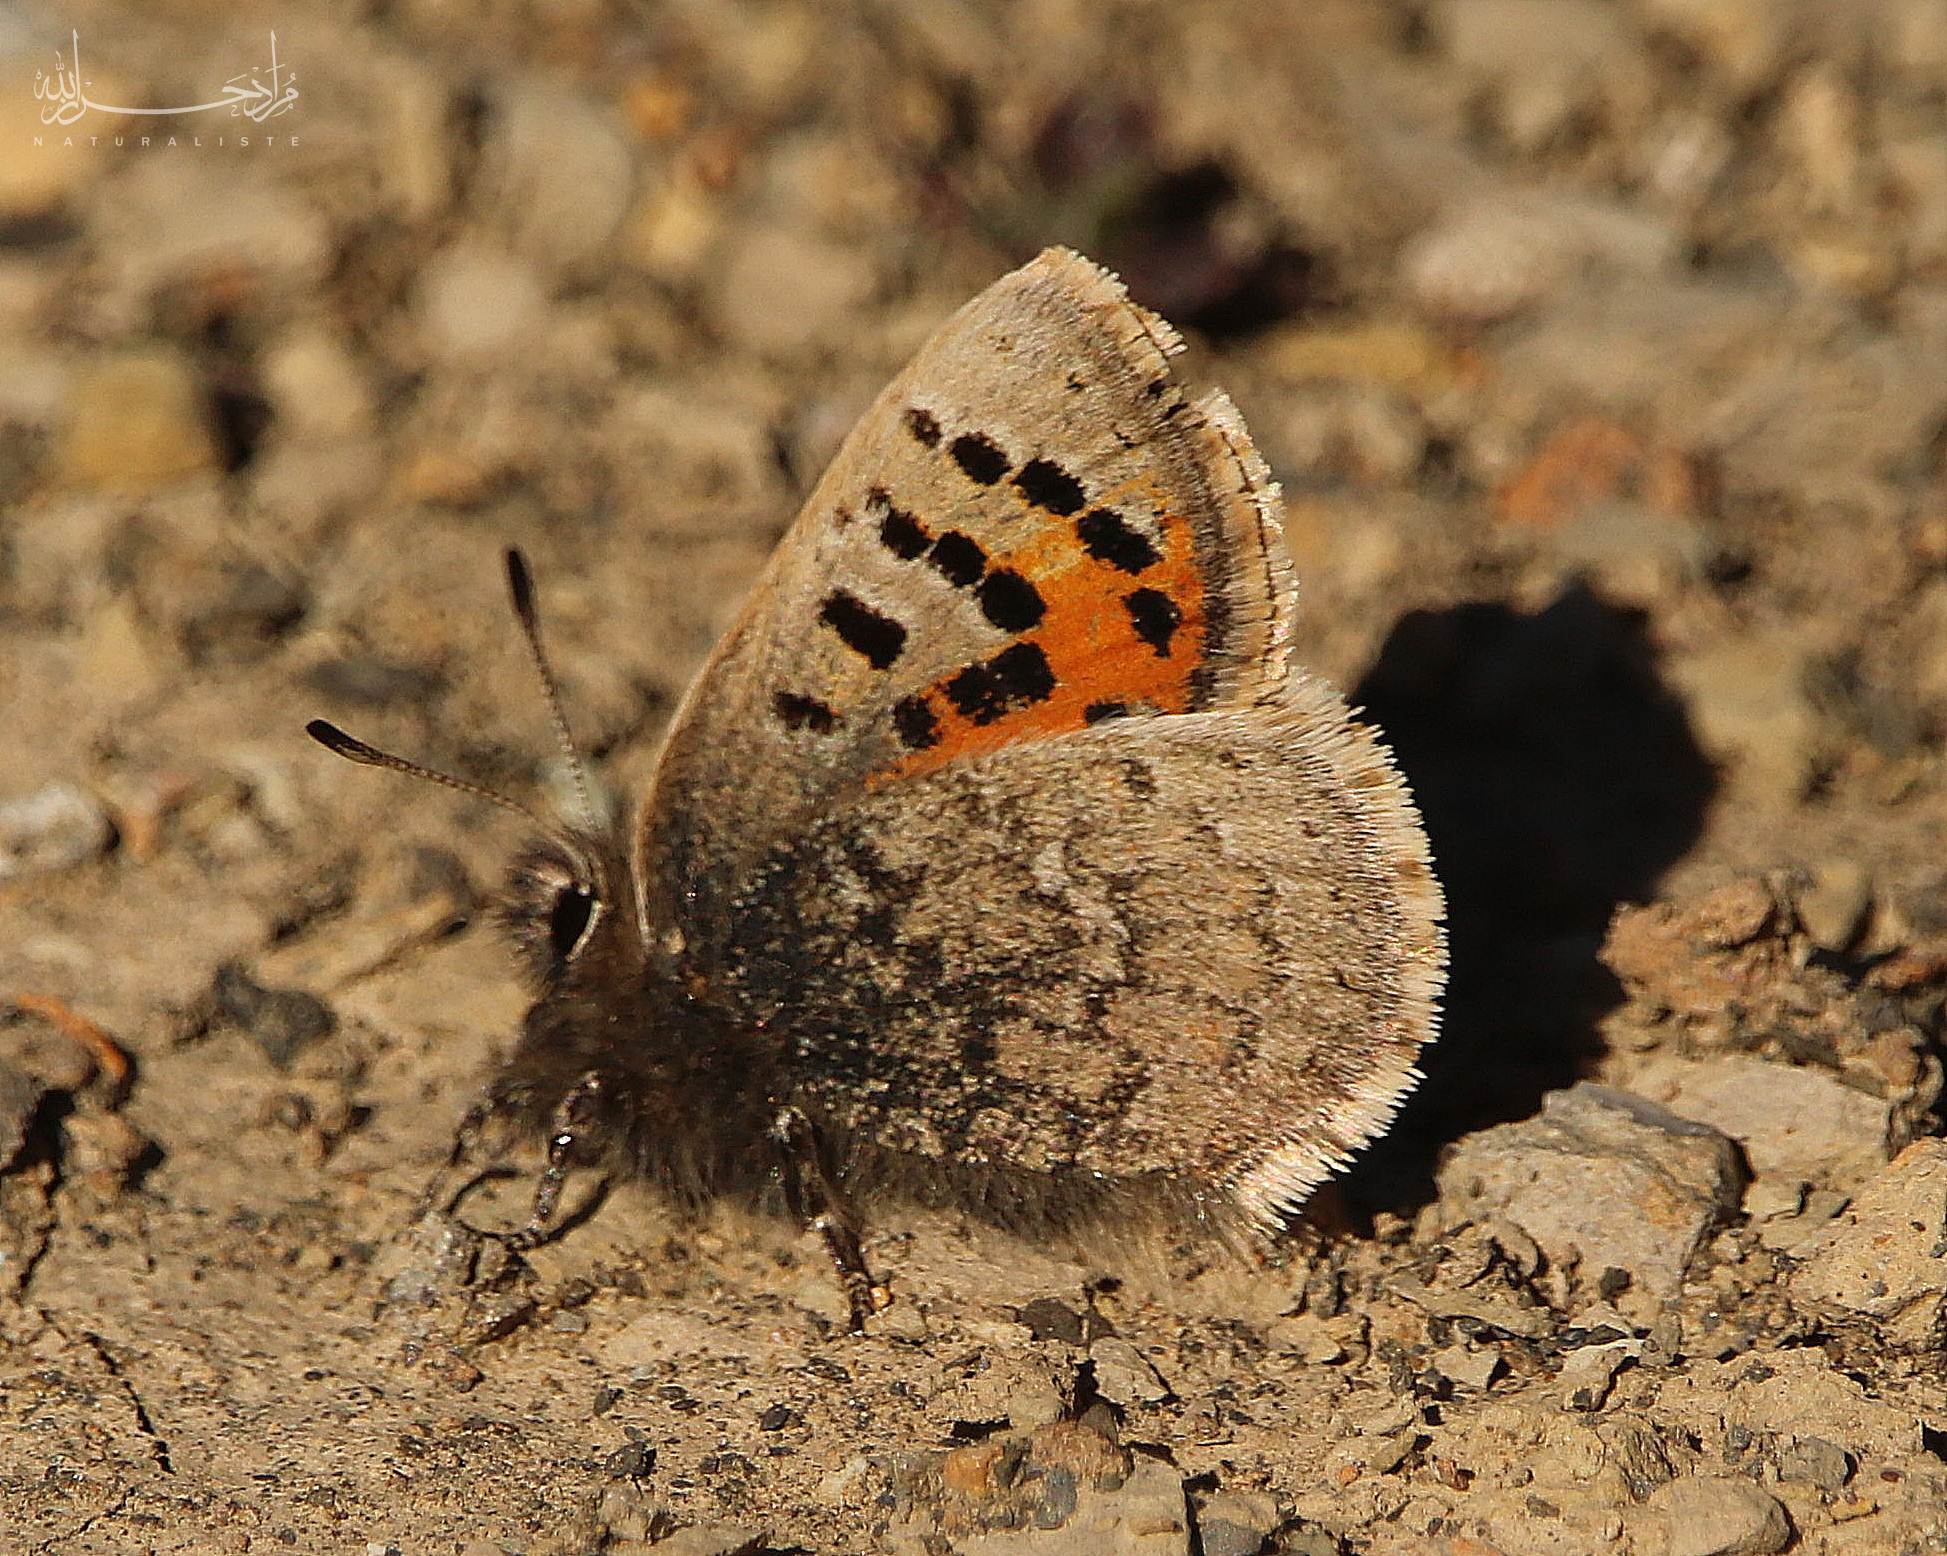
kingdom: Animalia
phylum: Arthropoda
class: Insecta
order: Lepidoptera
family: Lycaenidae
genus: Tomares
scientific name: Tomares mauritanicus
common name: Moroccan hairstreak
